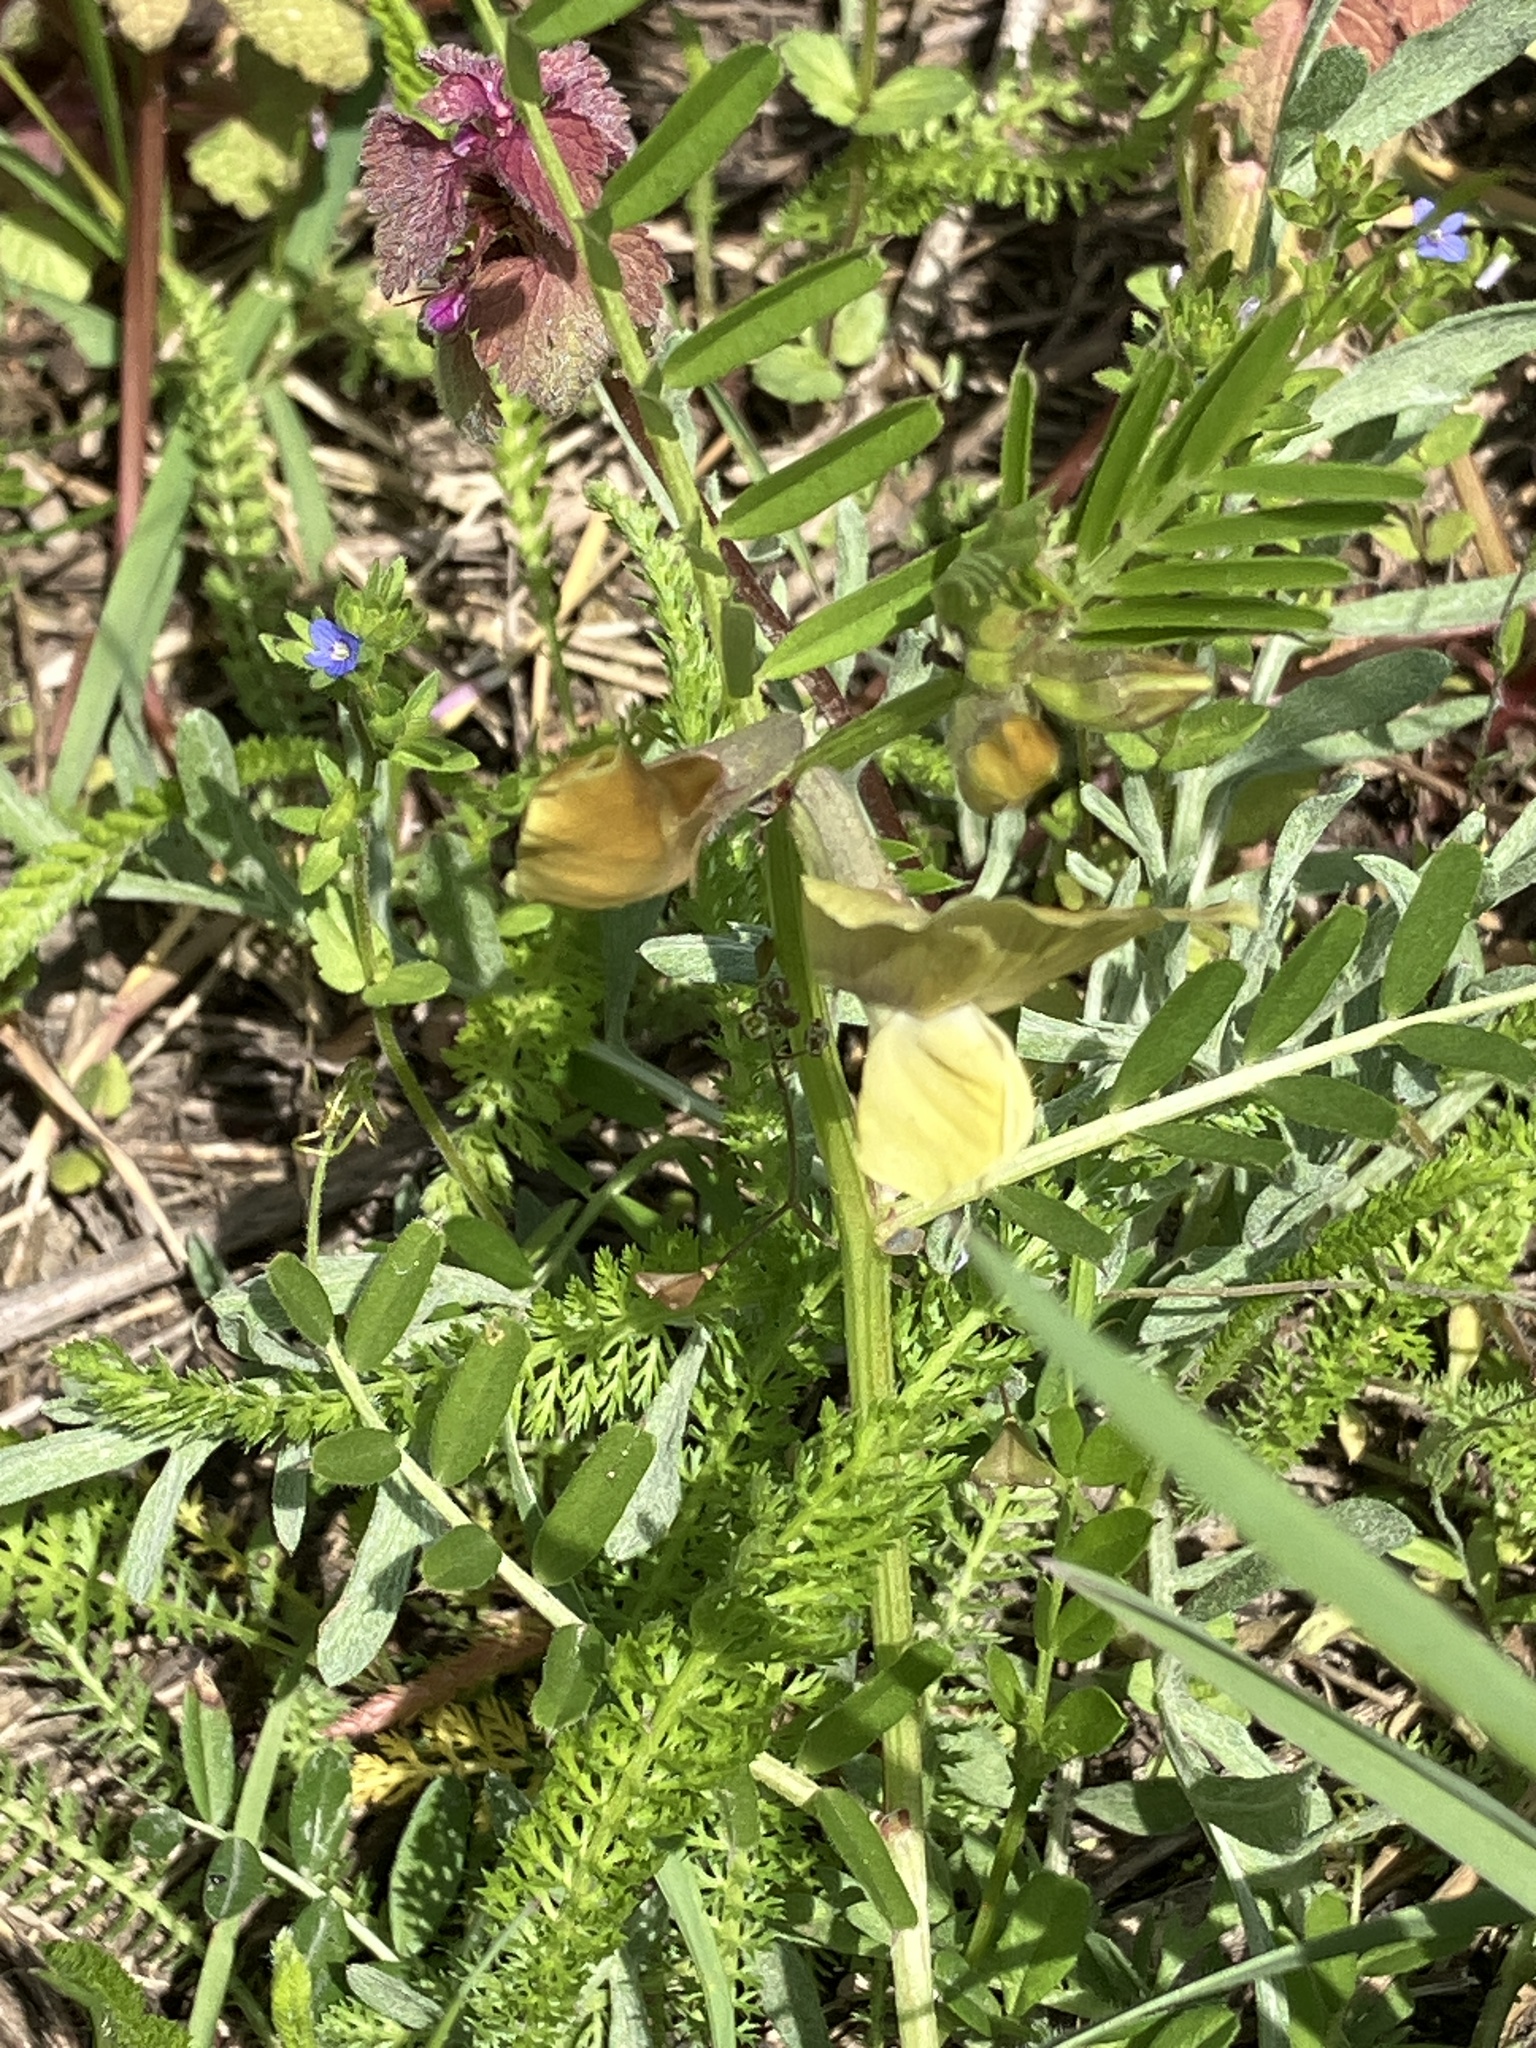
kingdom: Plantae
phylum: Tracheophyta
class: Magnoliopsida
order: Fabales
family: Fabaceae
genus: Vicia
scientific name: Vicia grandiflora
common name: Large yellow vetch
